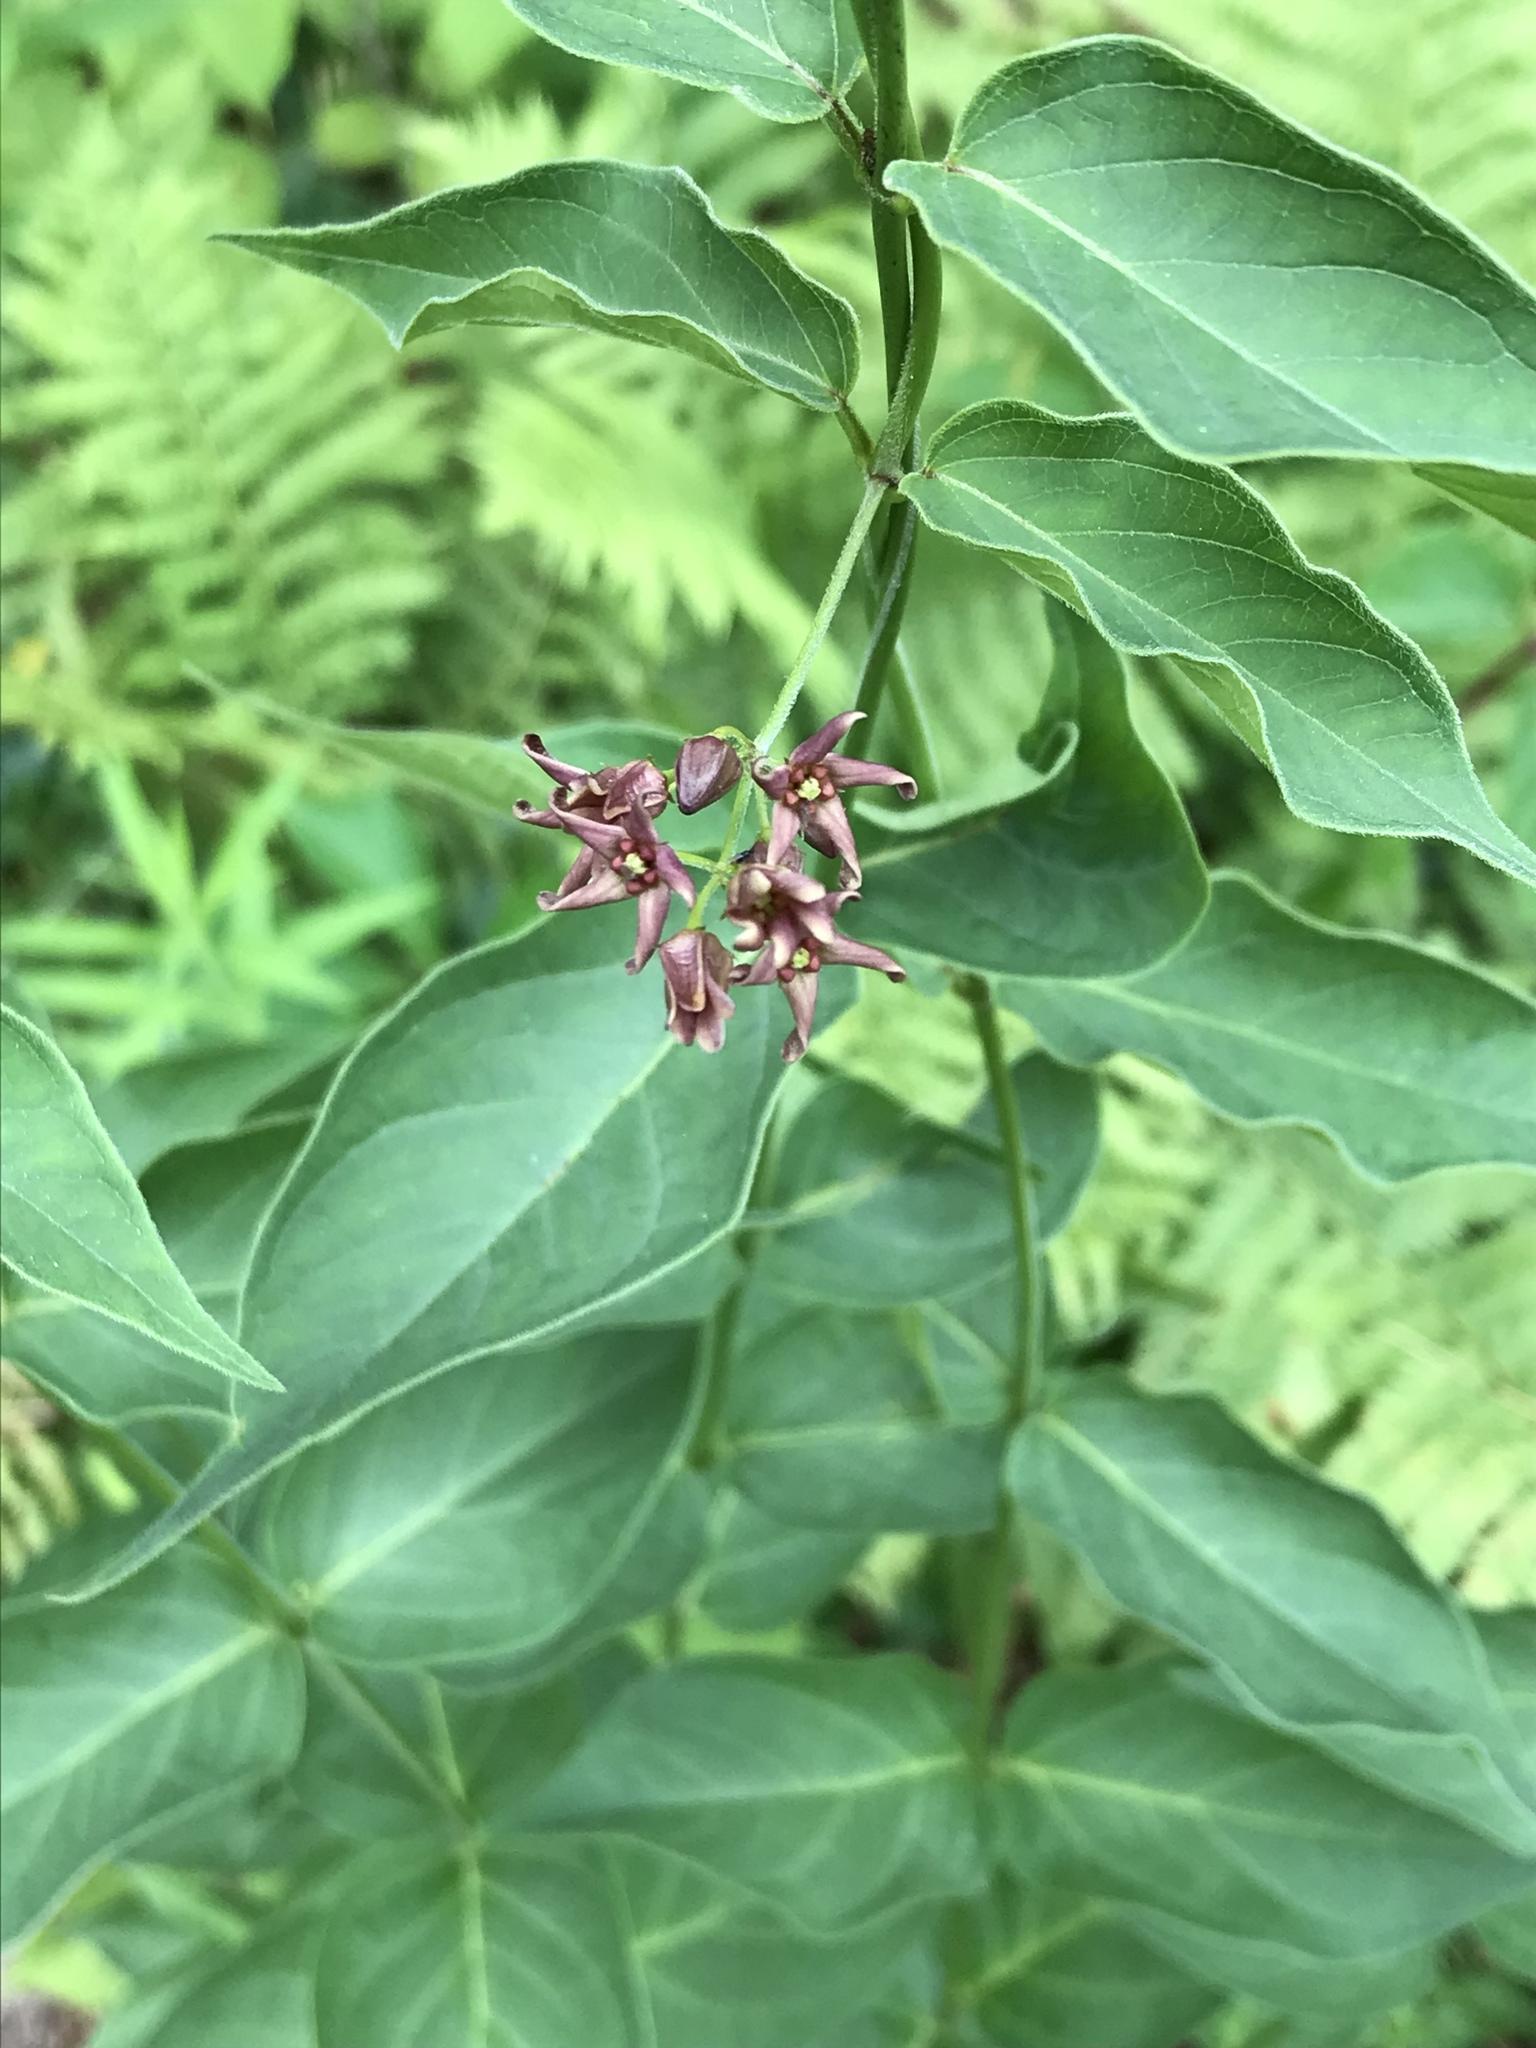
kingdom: Plantae
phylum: Tracheophyta
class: Magnoliopsida
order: Gentianales
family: Apocynaceae
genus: Vincetoxicum
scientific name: Vincetoxicum rossicum
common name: Dog-strangling vine
